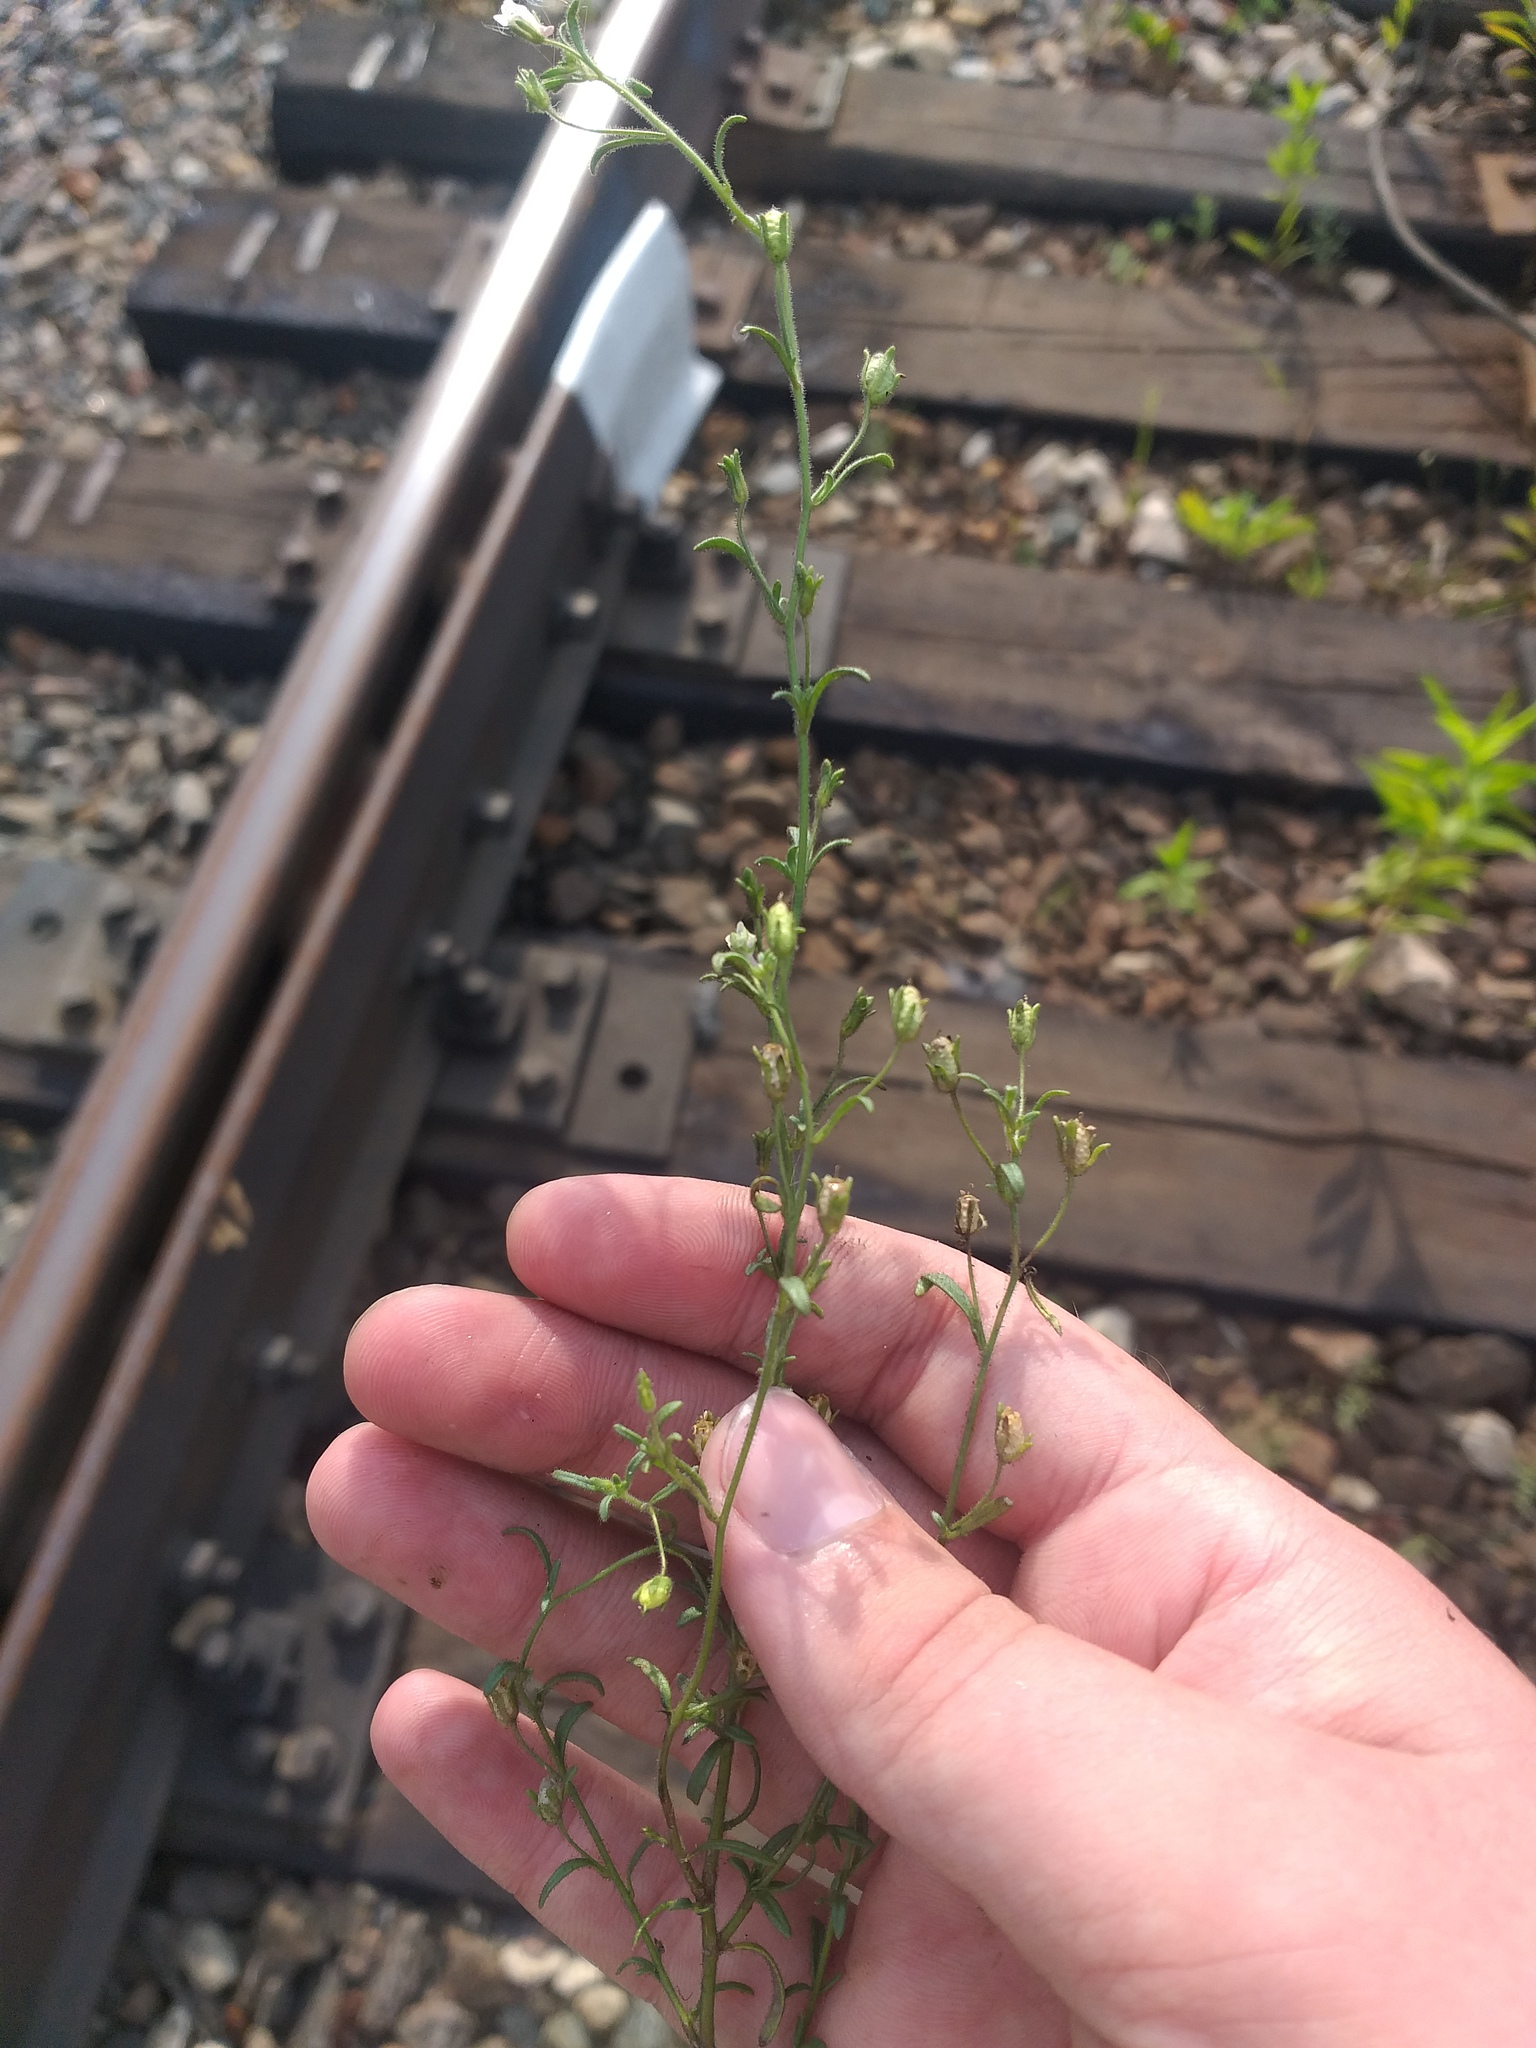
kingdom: Plantae
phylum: Tracheophyta
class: Magnoliopsida
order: Lamiales
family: Plantaginaceae
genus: Chaenorhinum
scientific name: Chaenorhinum minus
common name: Dwarf snapdragon
